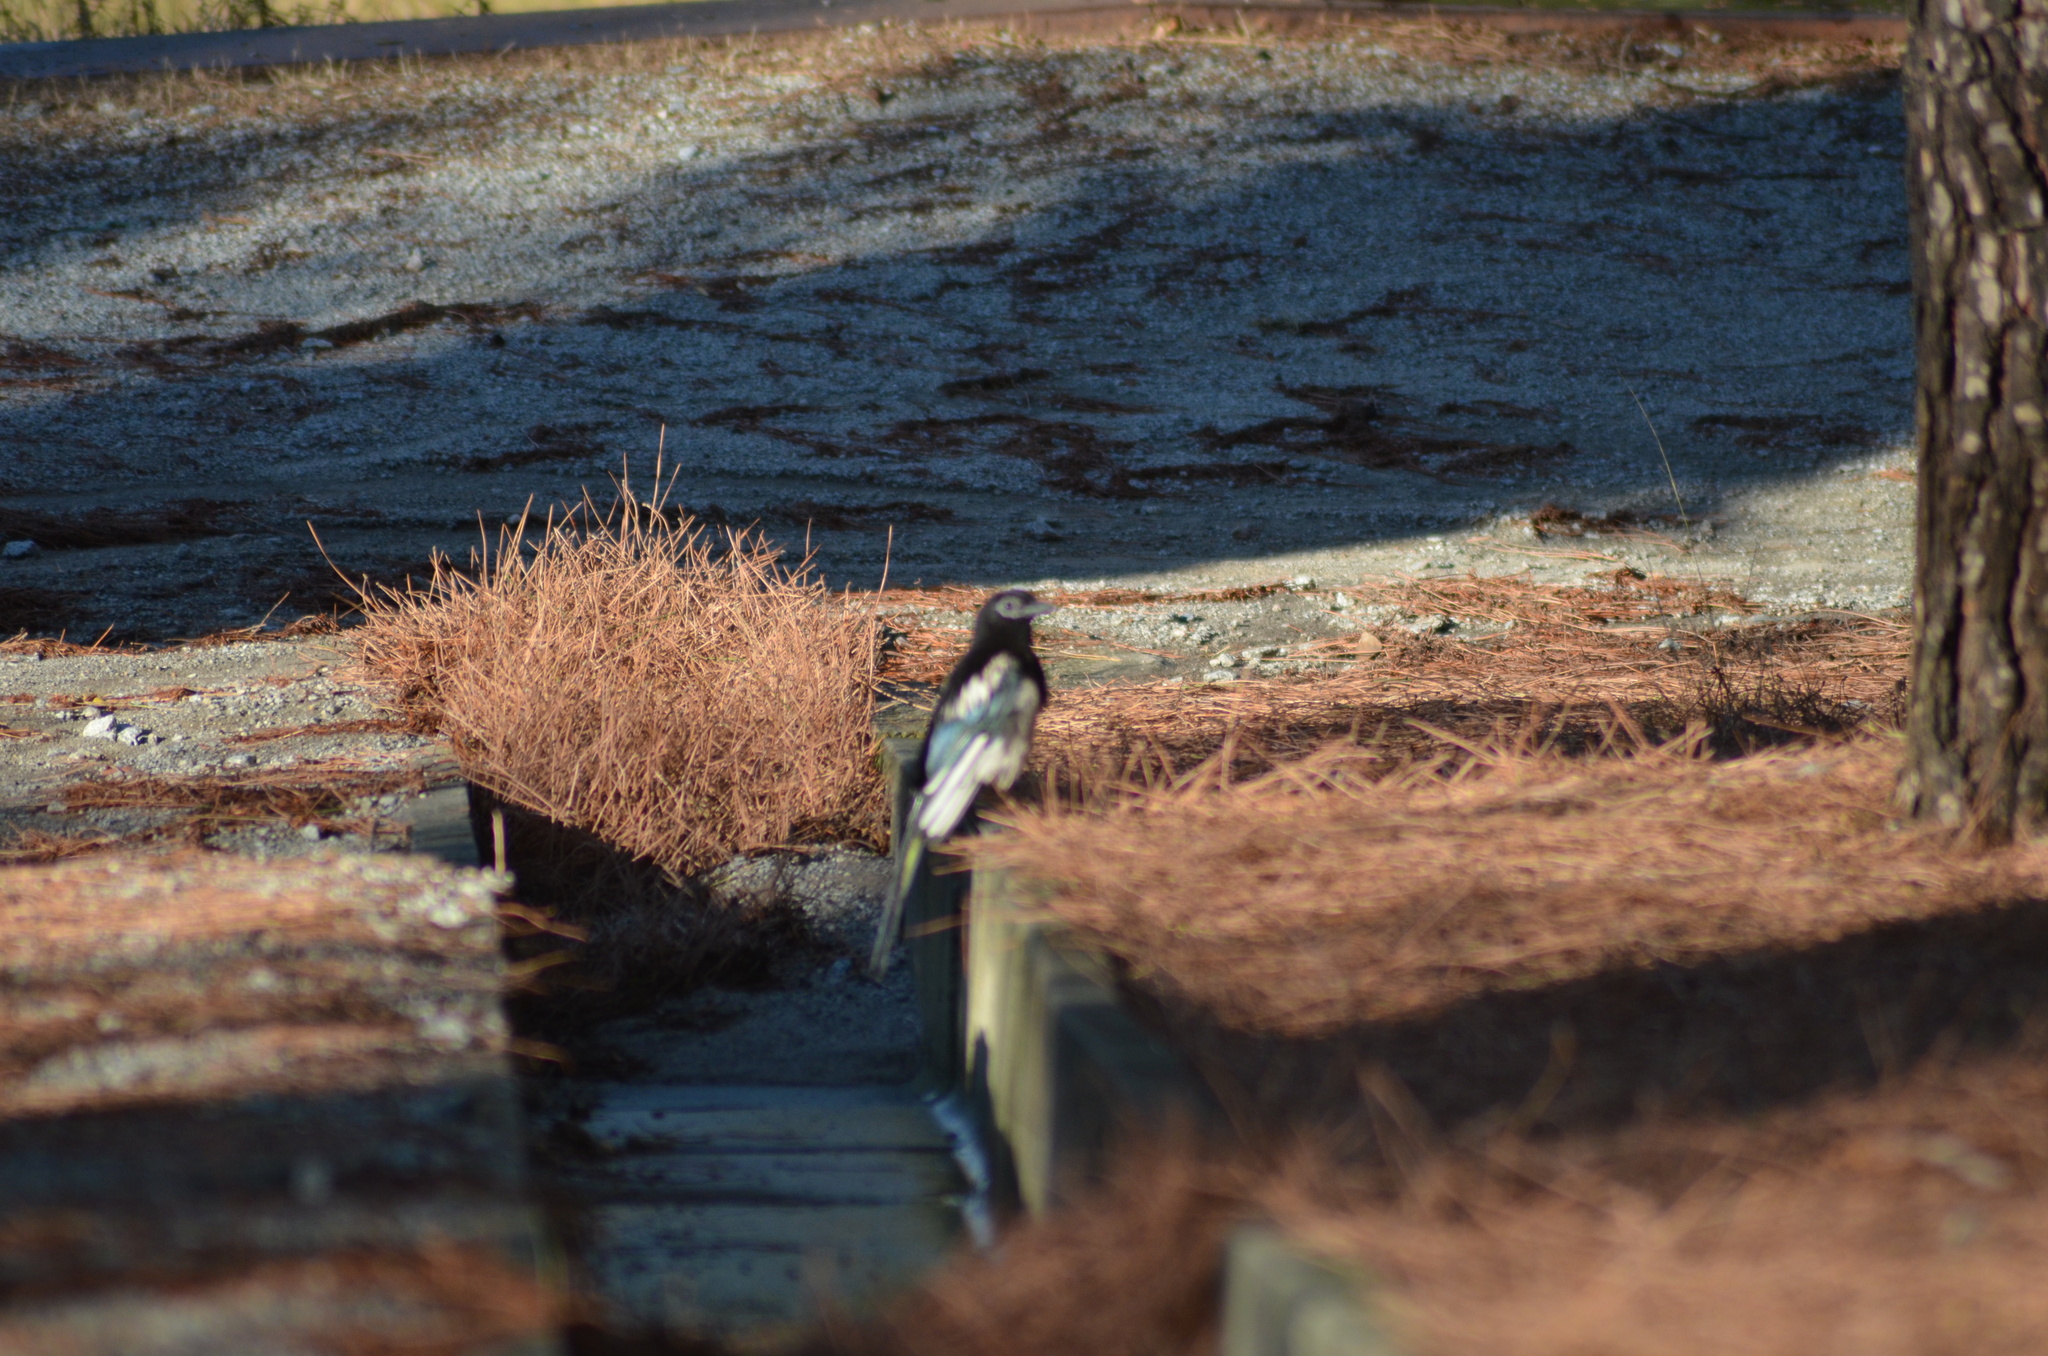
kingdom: Animalia
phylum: Chordata
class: Aves
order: Passeriformes
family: Corvidae
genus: Pica
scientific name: Pica pica
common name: Eurasian magpie
